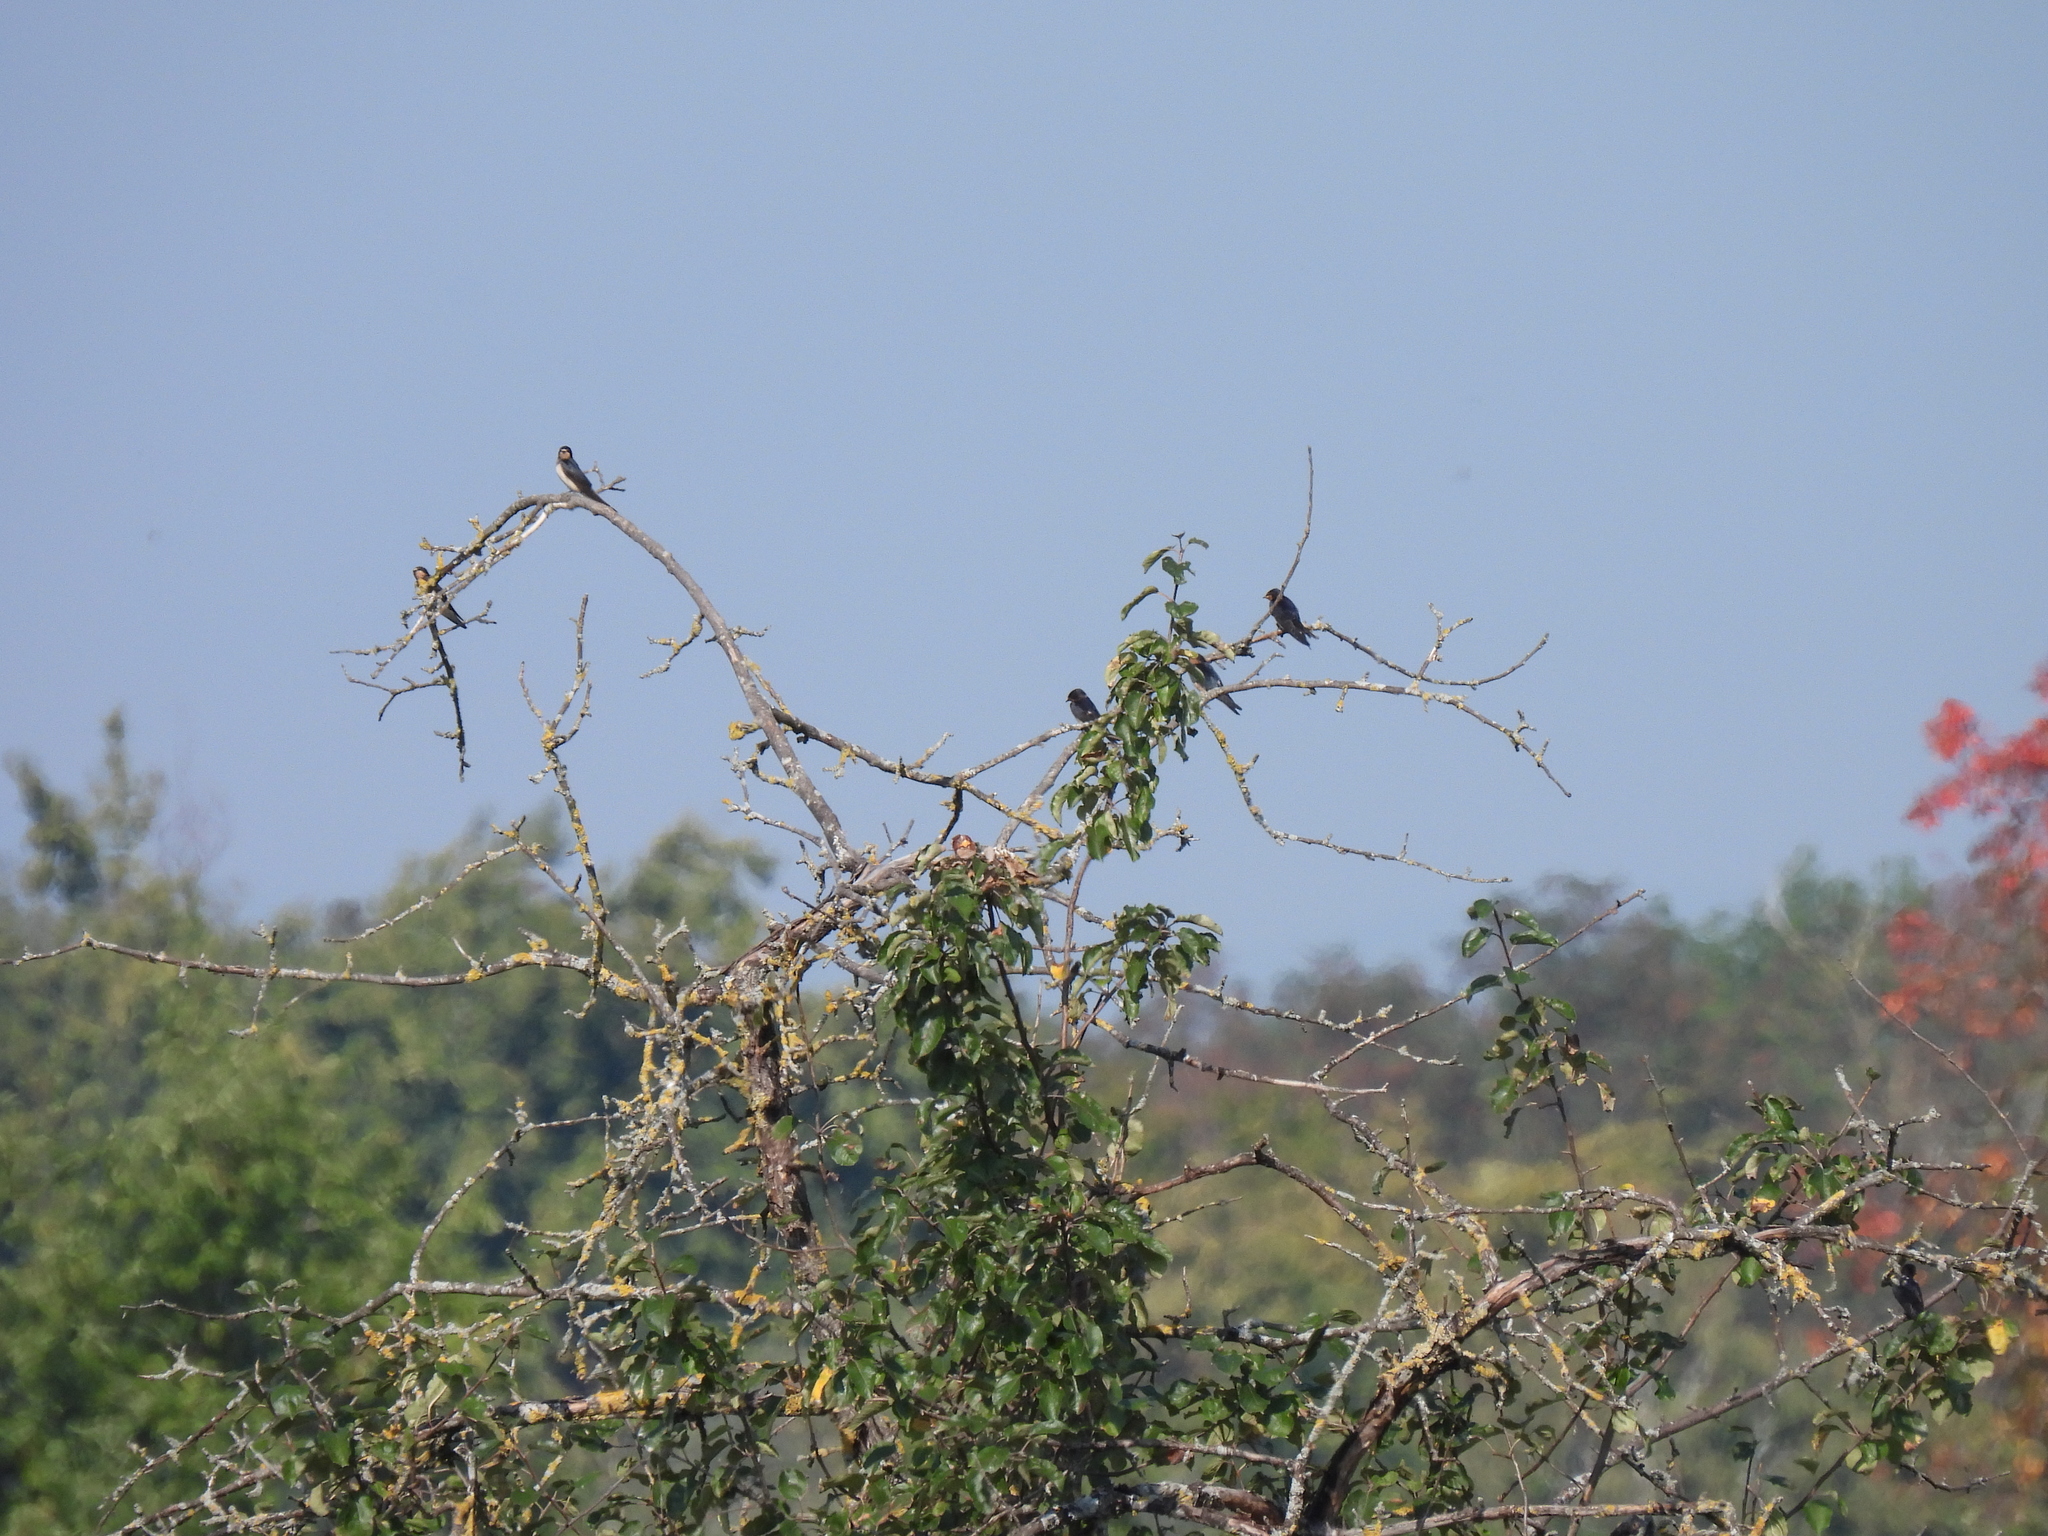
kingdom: Animalia
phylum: Chordata
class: Aves
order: Passeriformes
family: Hirundinidae
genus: Hirundo
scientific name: Hirundo rustica
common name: Barn swallow
